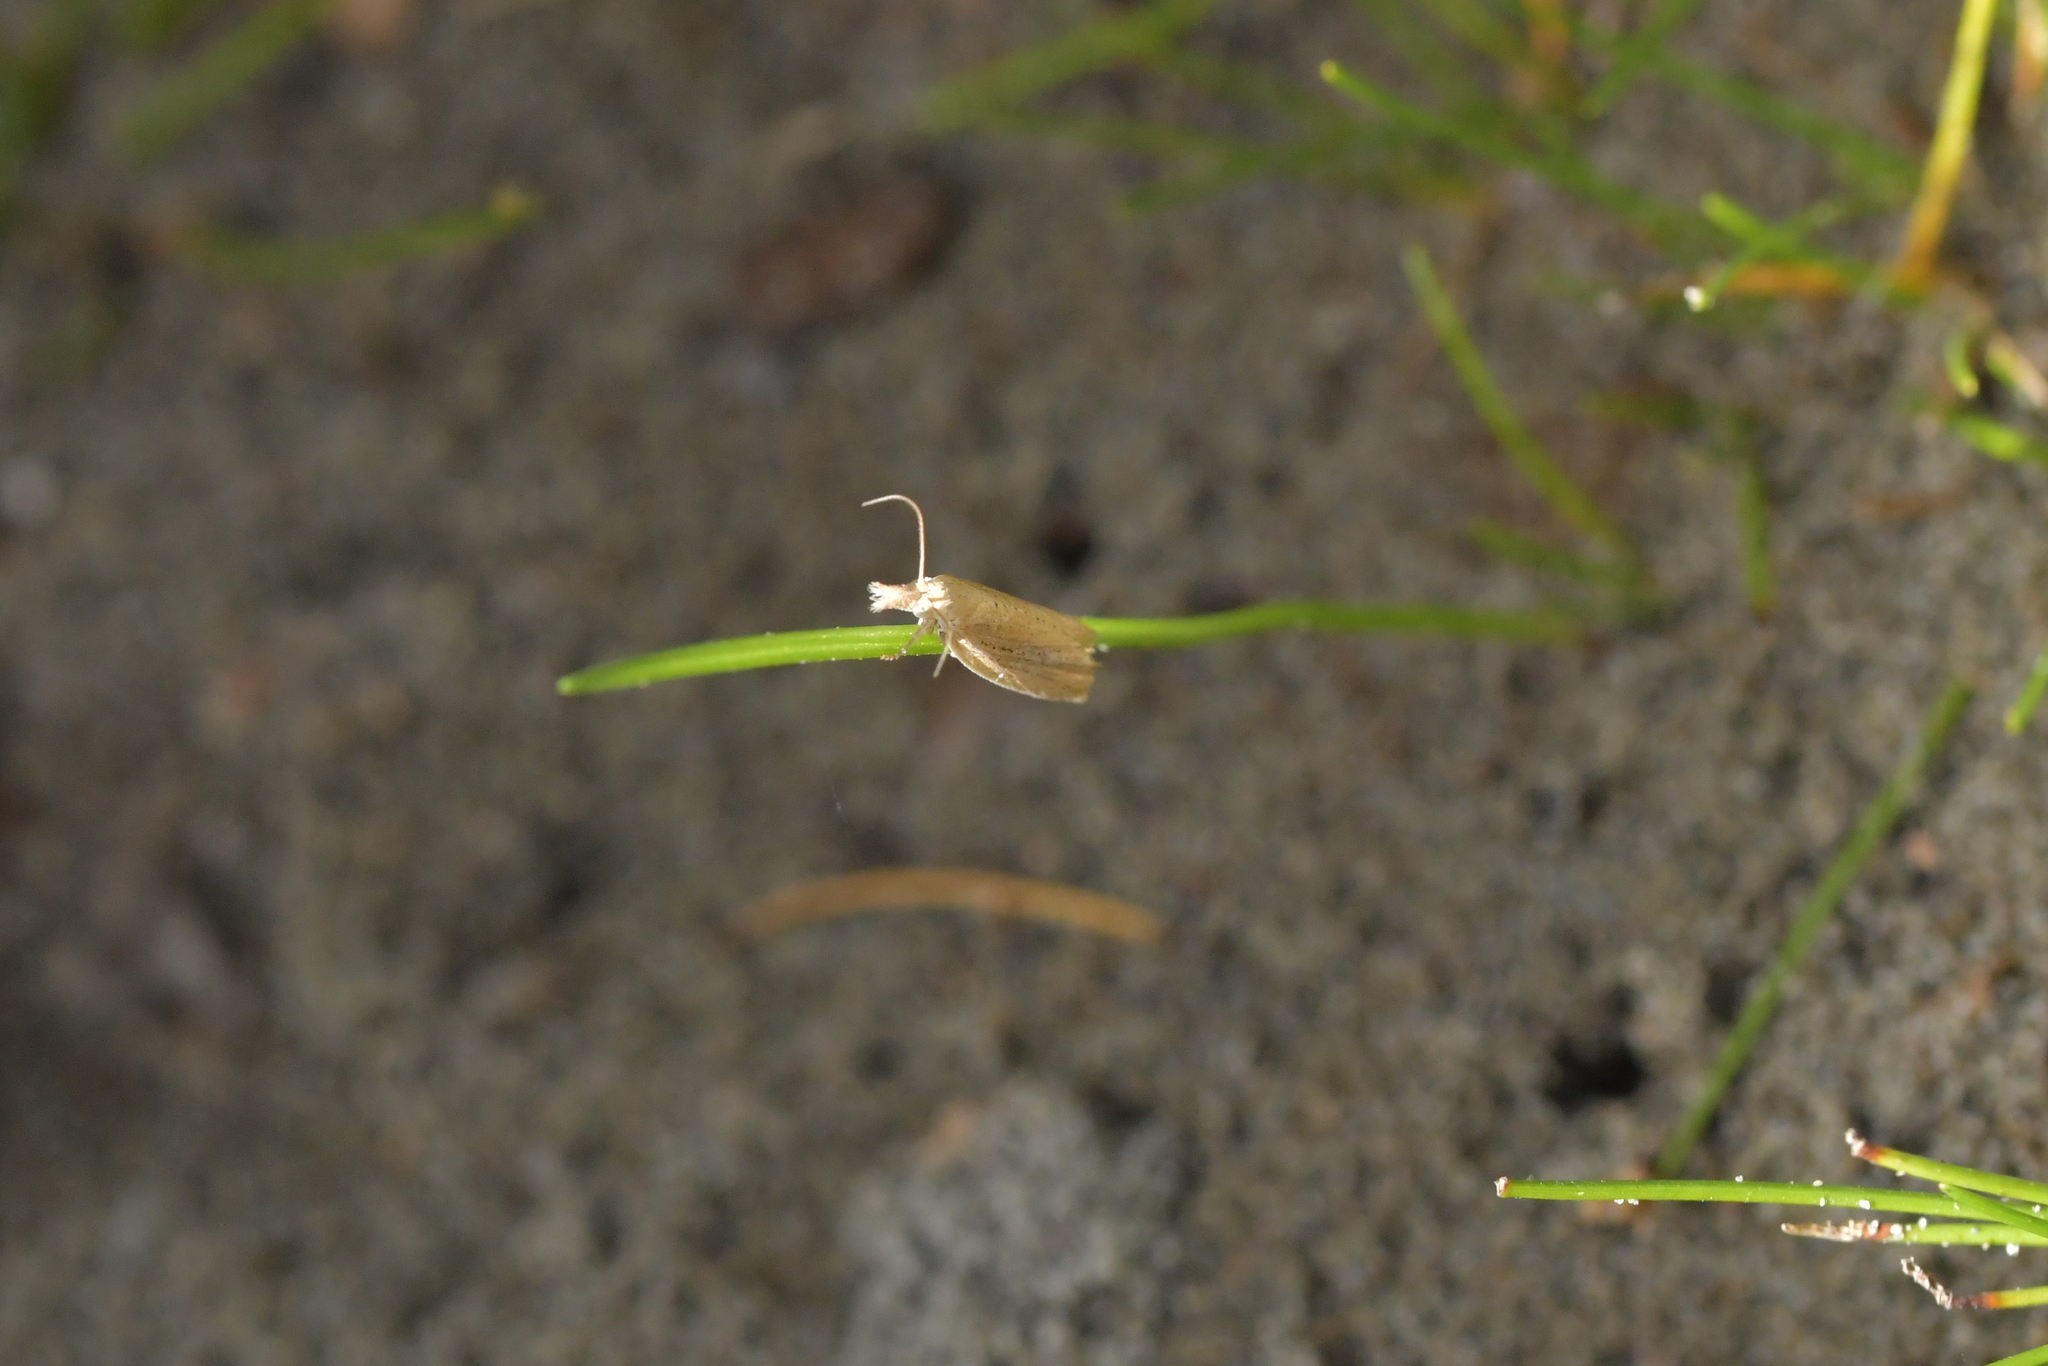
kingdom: Animalia
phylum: Arthropoda
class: Insecta
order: Lepidoptera
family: Tortricidae
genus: Bactra
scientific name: Bactra noteraula
